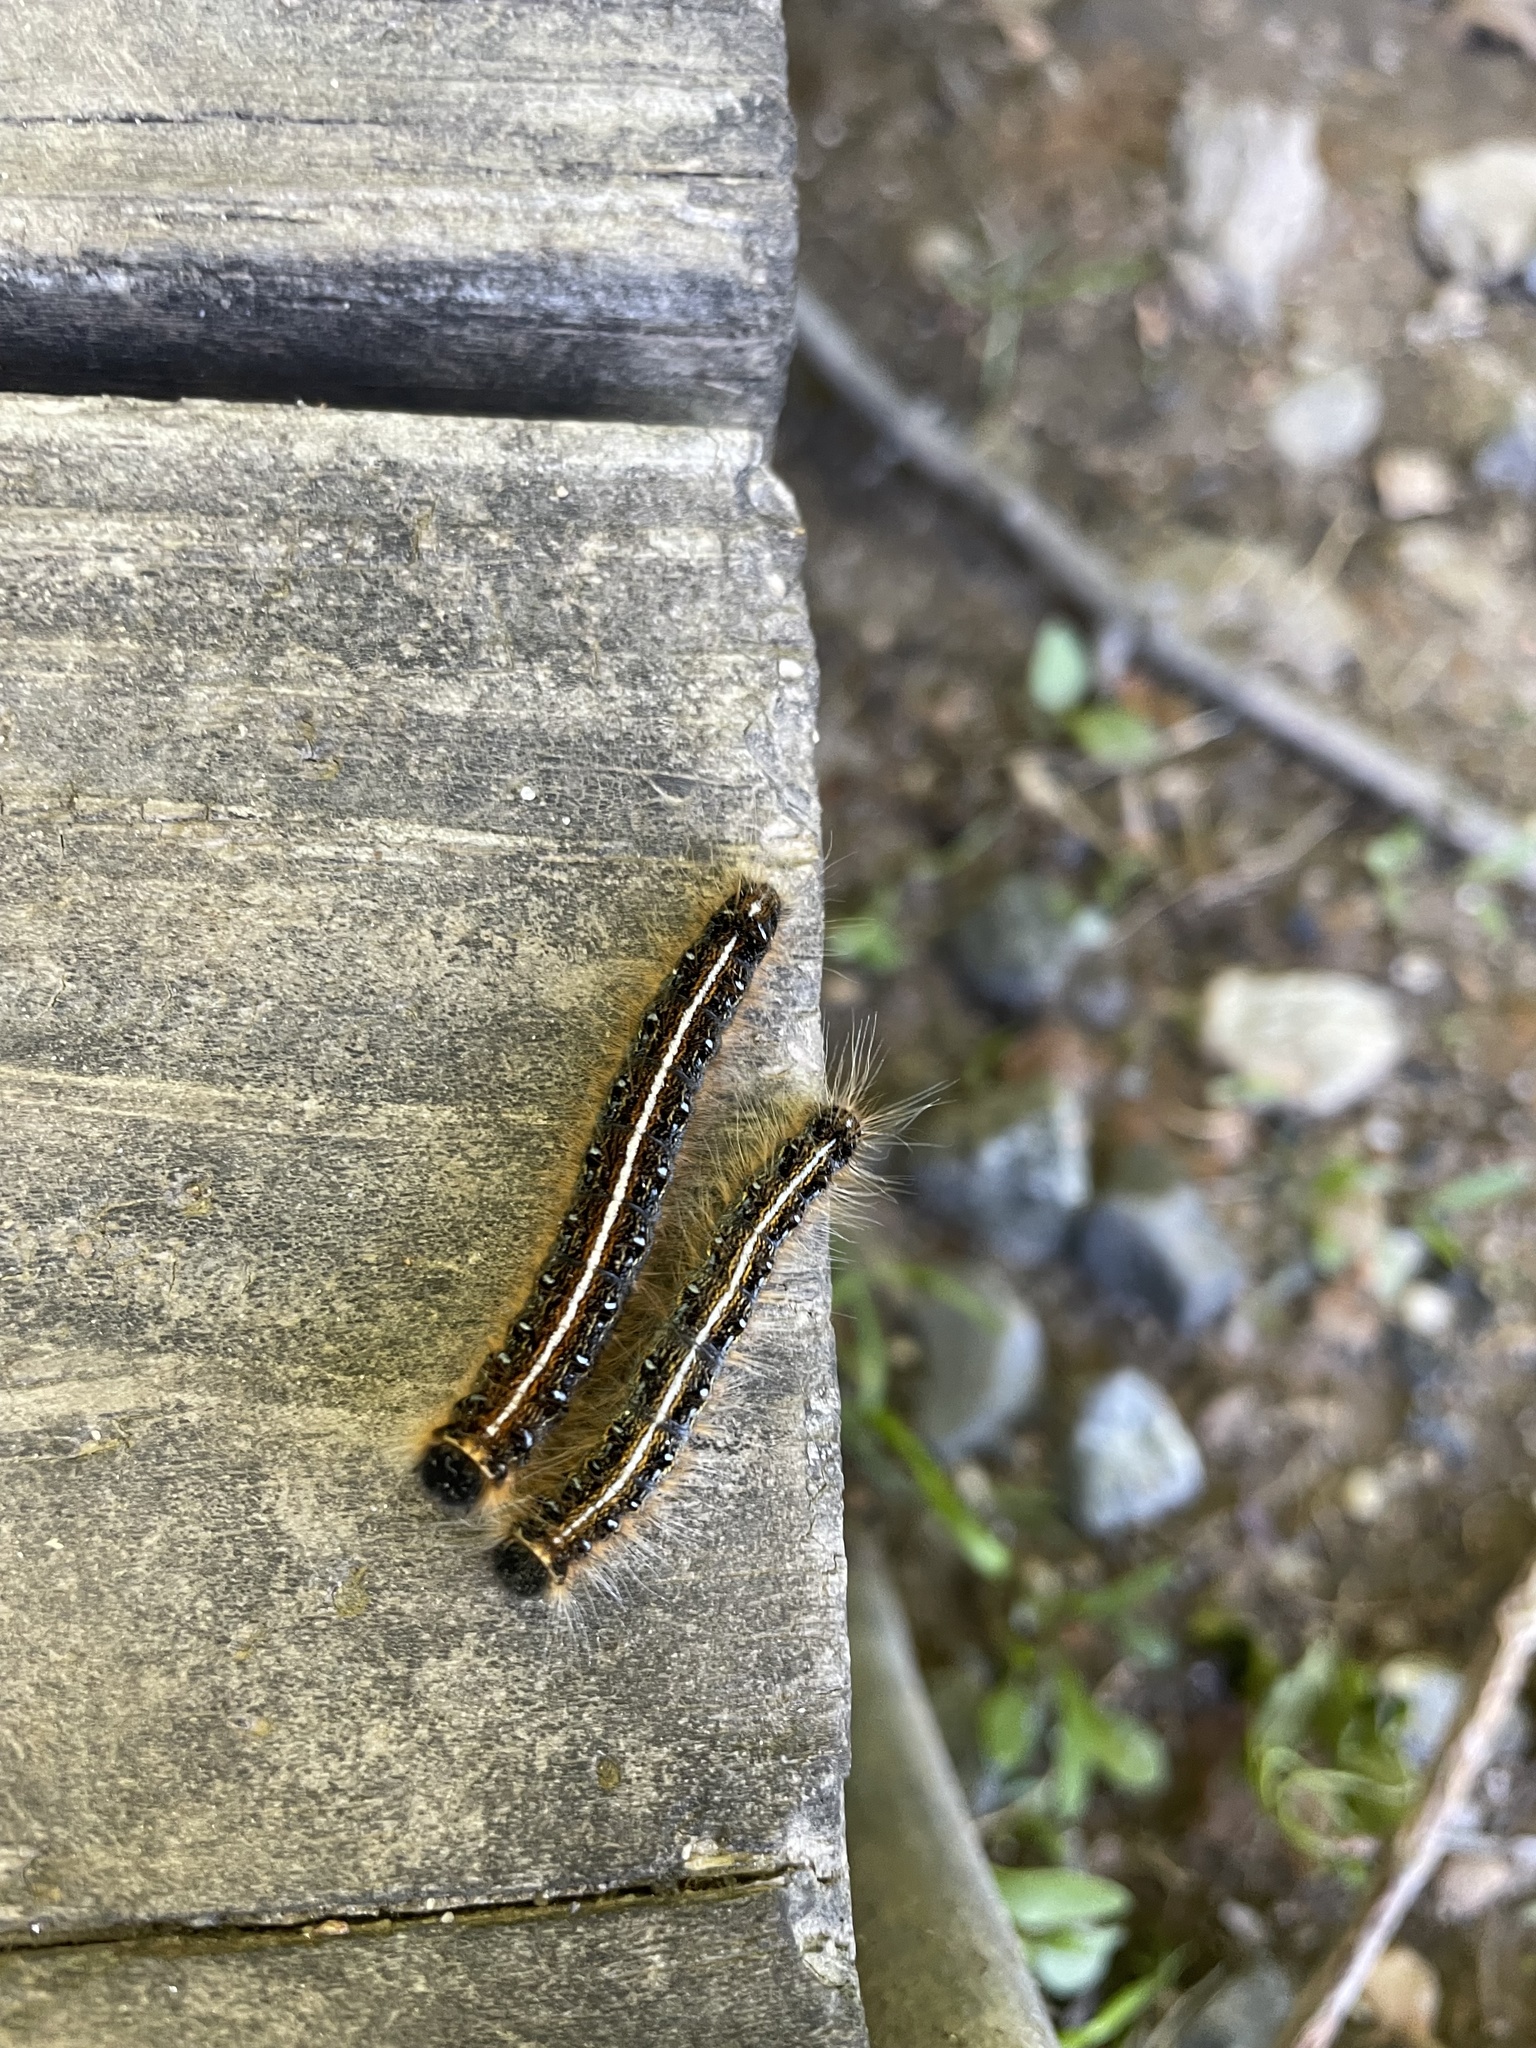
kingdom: Animalia
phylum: Arthropoda
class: Insecta
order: Lepidoptera
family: Lasiocampidae
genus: Malacosoma
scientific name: Malacosoma americana
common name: Eastern tent caterpillar moth
